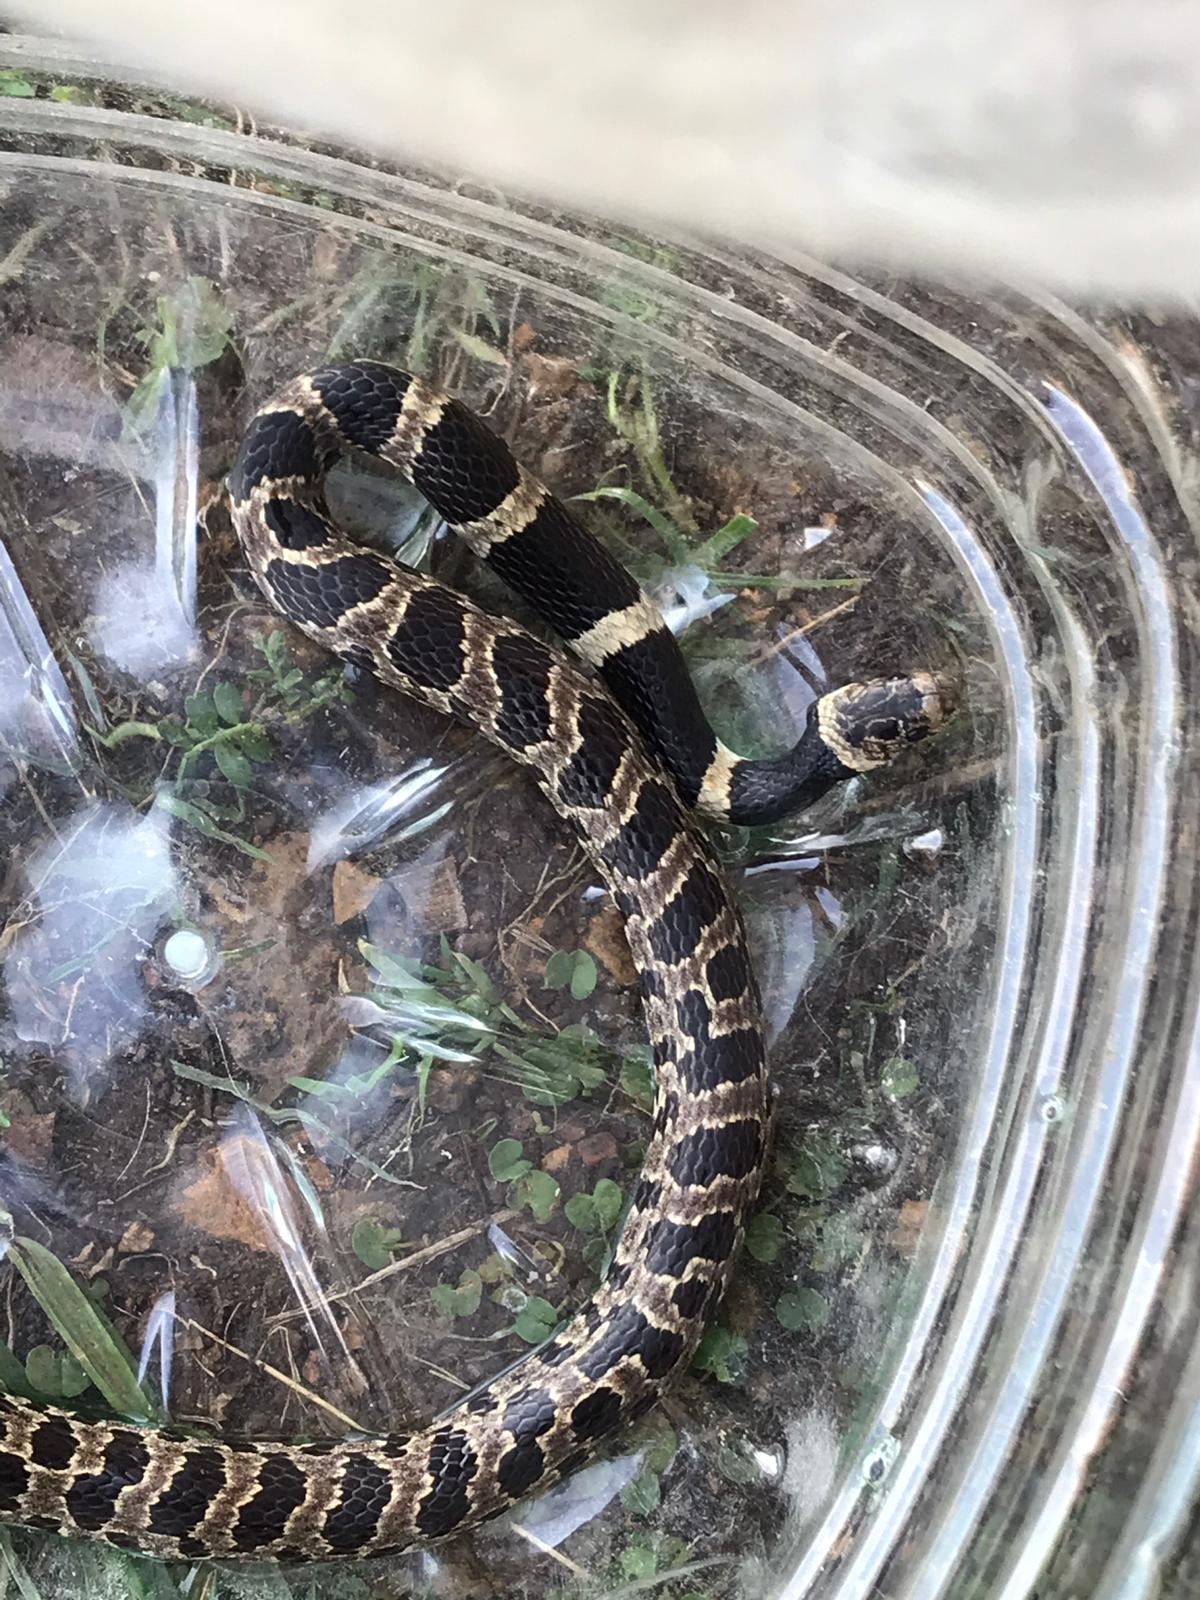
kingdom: Animalia
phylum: Chordata
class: Squamata
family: Colubridae
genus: Dipsas
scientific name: Dipsas turgida
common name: Bolivian tree snake
